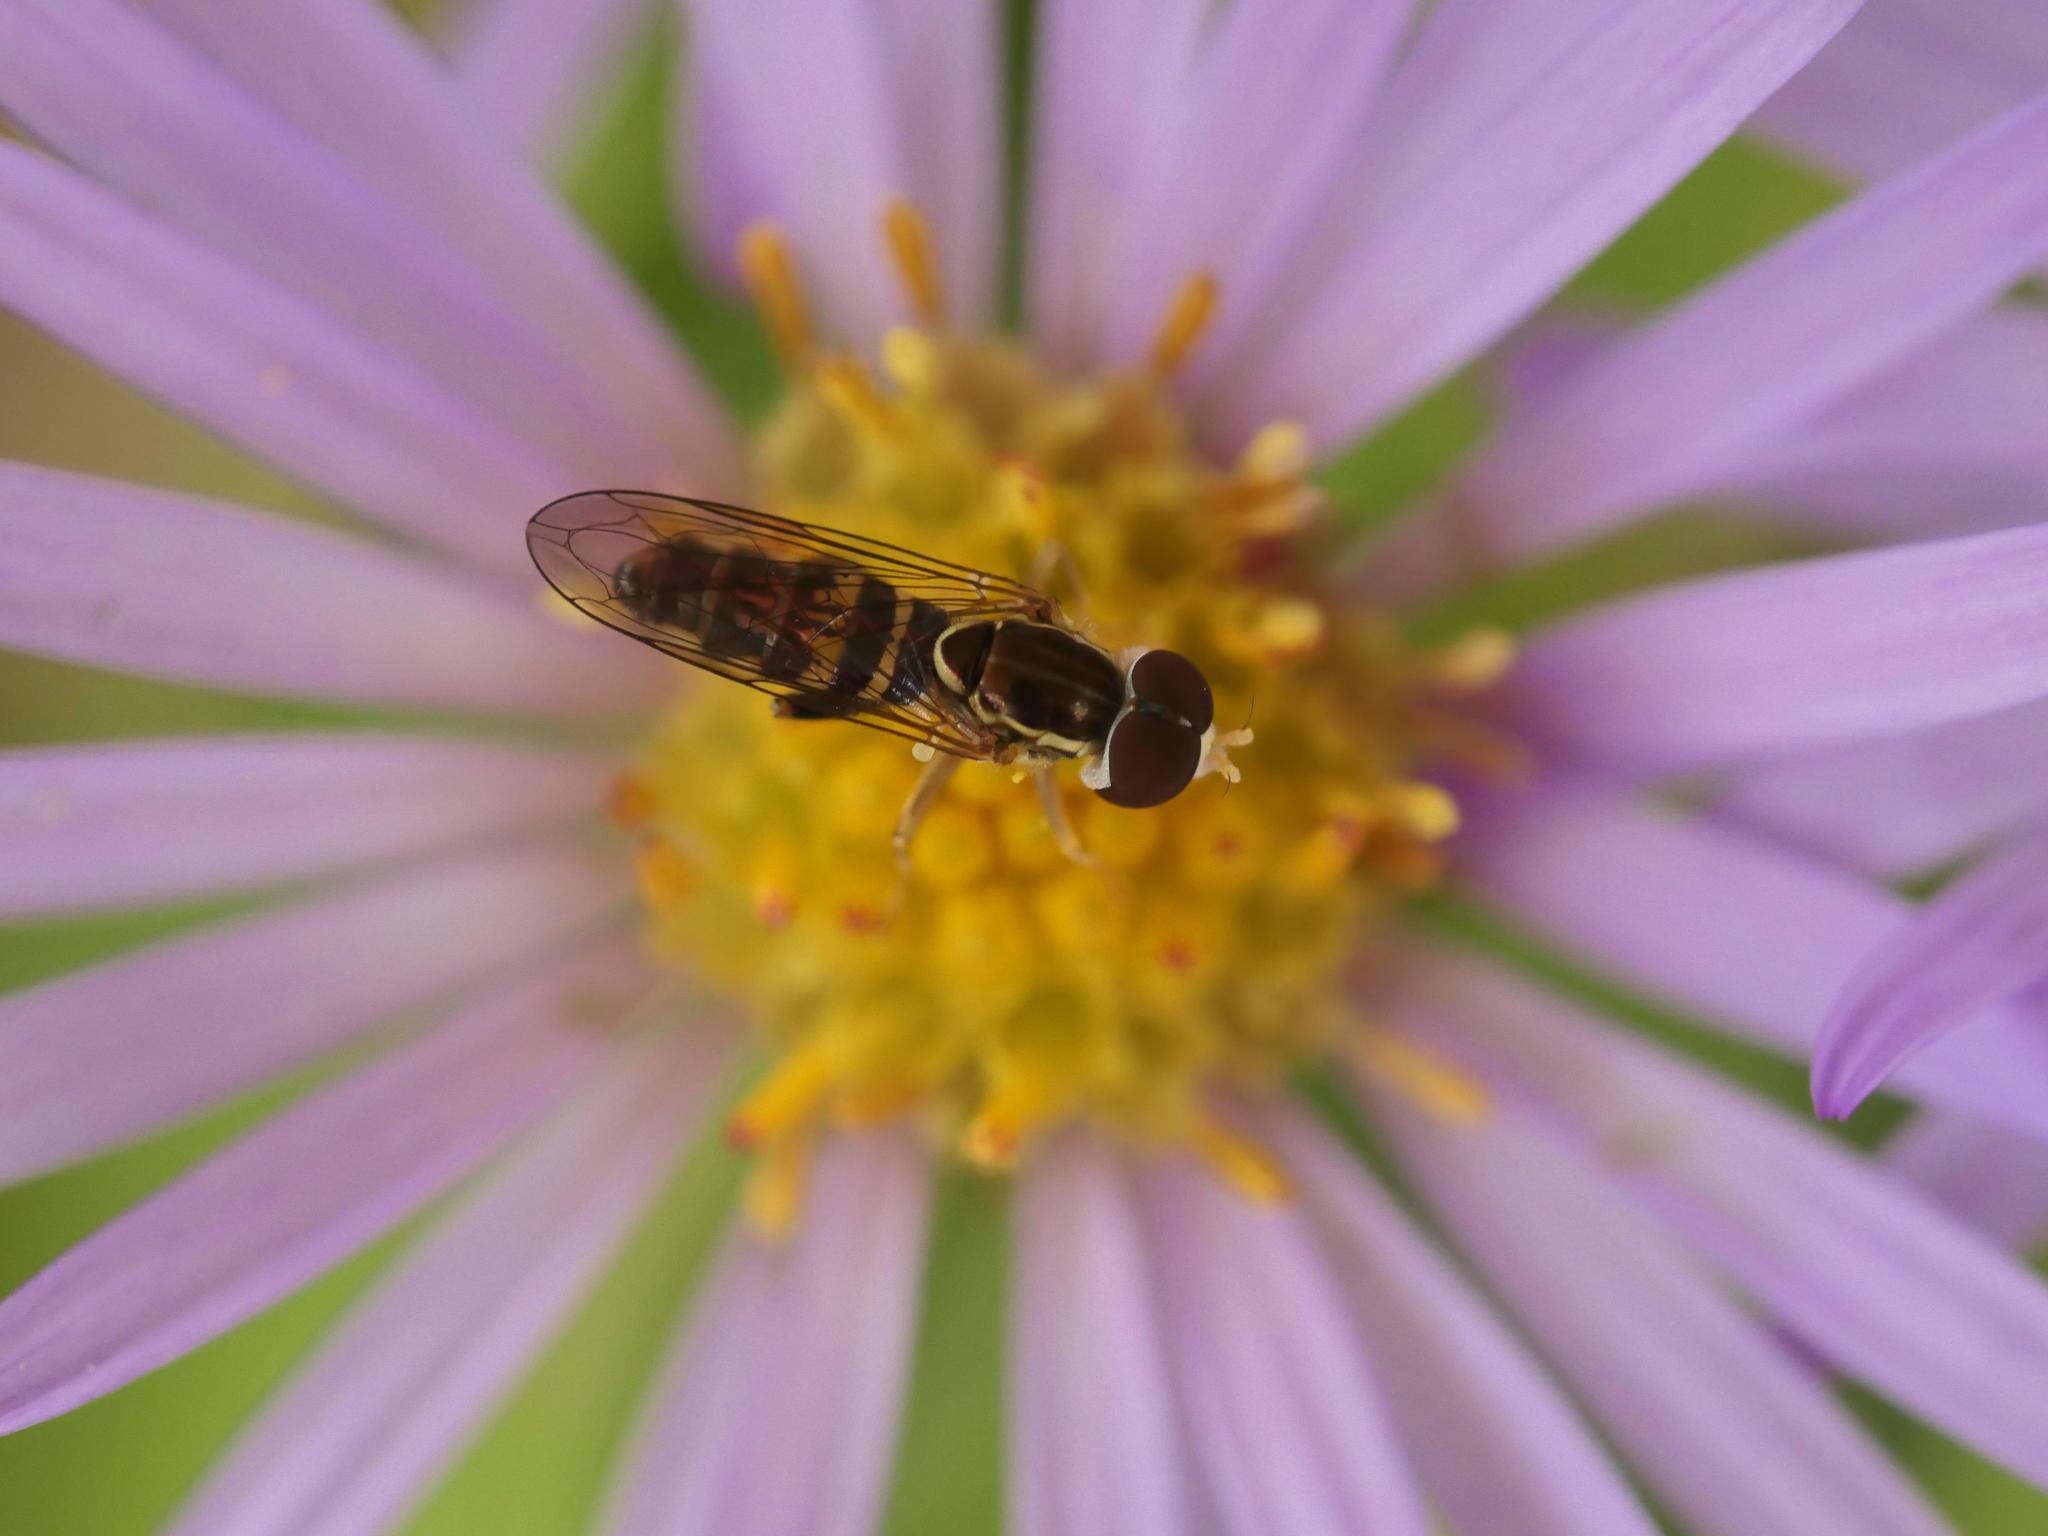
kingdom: Animalia
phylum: Arthropoda
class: Insecta
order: Diptera
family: Syrphidae
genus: Toxomerus
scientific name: Toxomerus geminatus
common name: Eastern calligrapher
